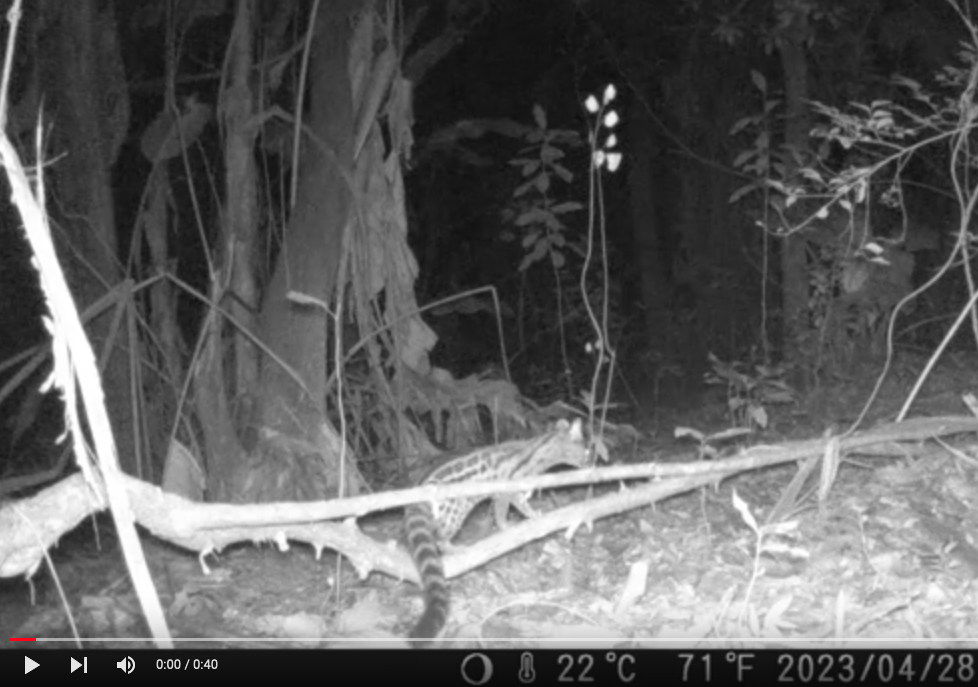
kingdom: Animalia
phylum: Chordata
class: Mammalia
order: Carnivora
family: Viverridae
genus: Genetta
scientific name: Genetta maculata
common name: Rusty-spotted genet
